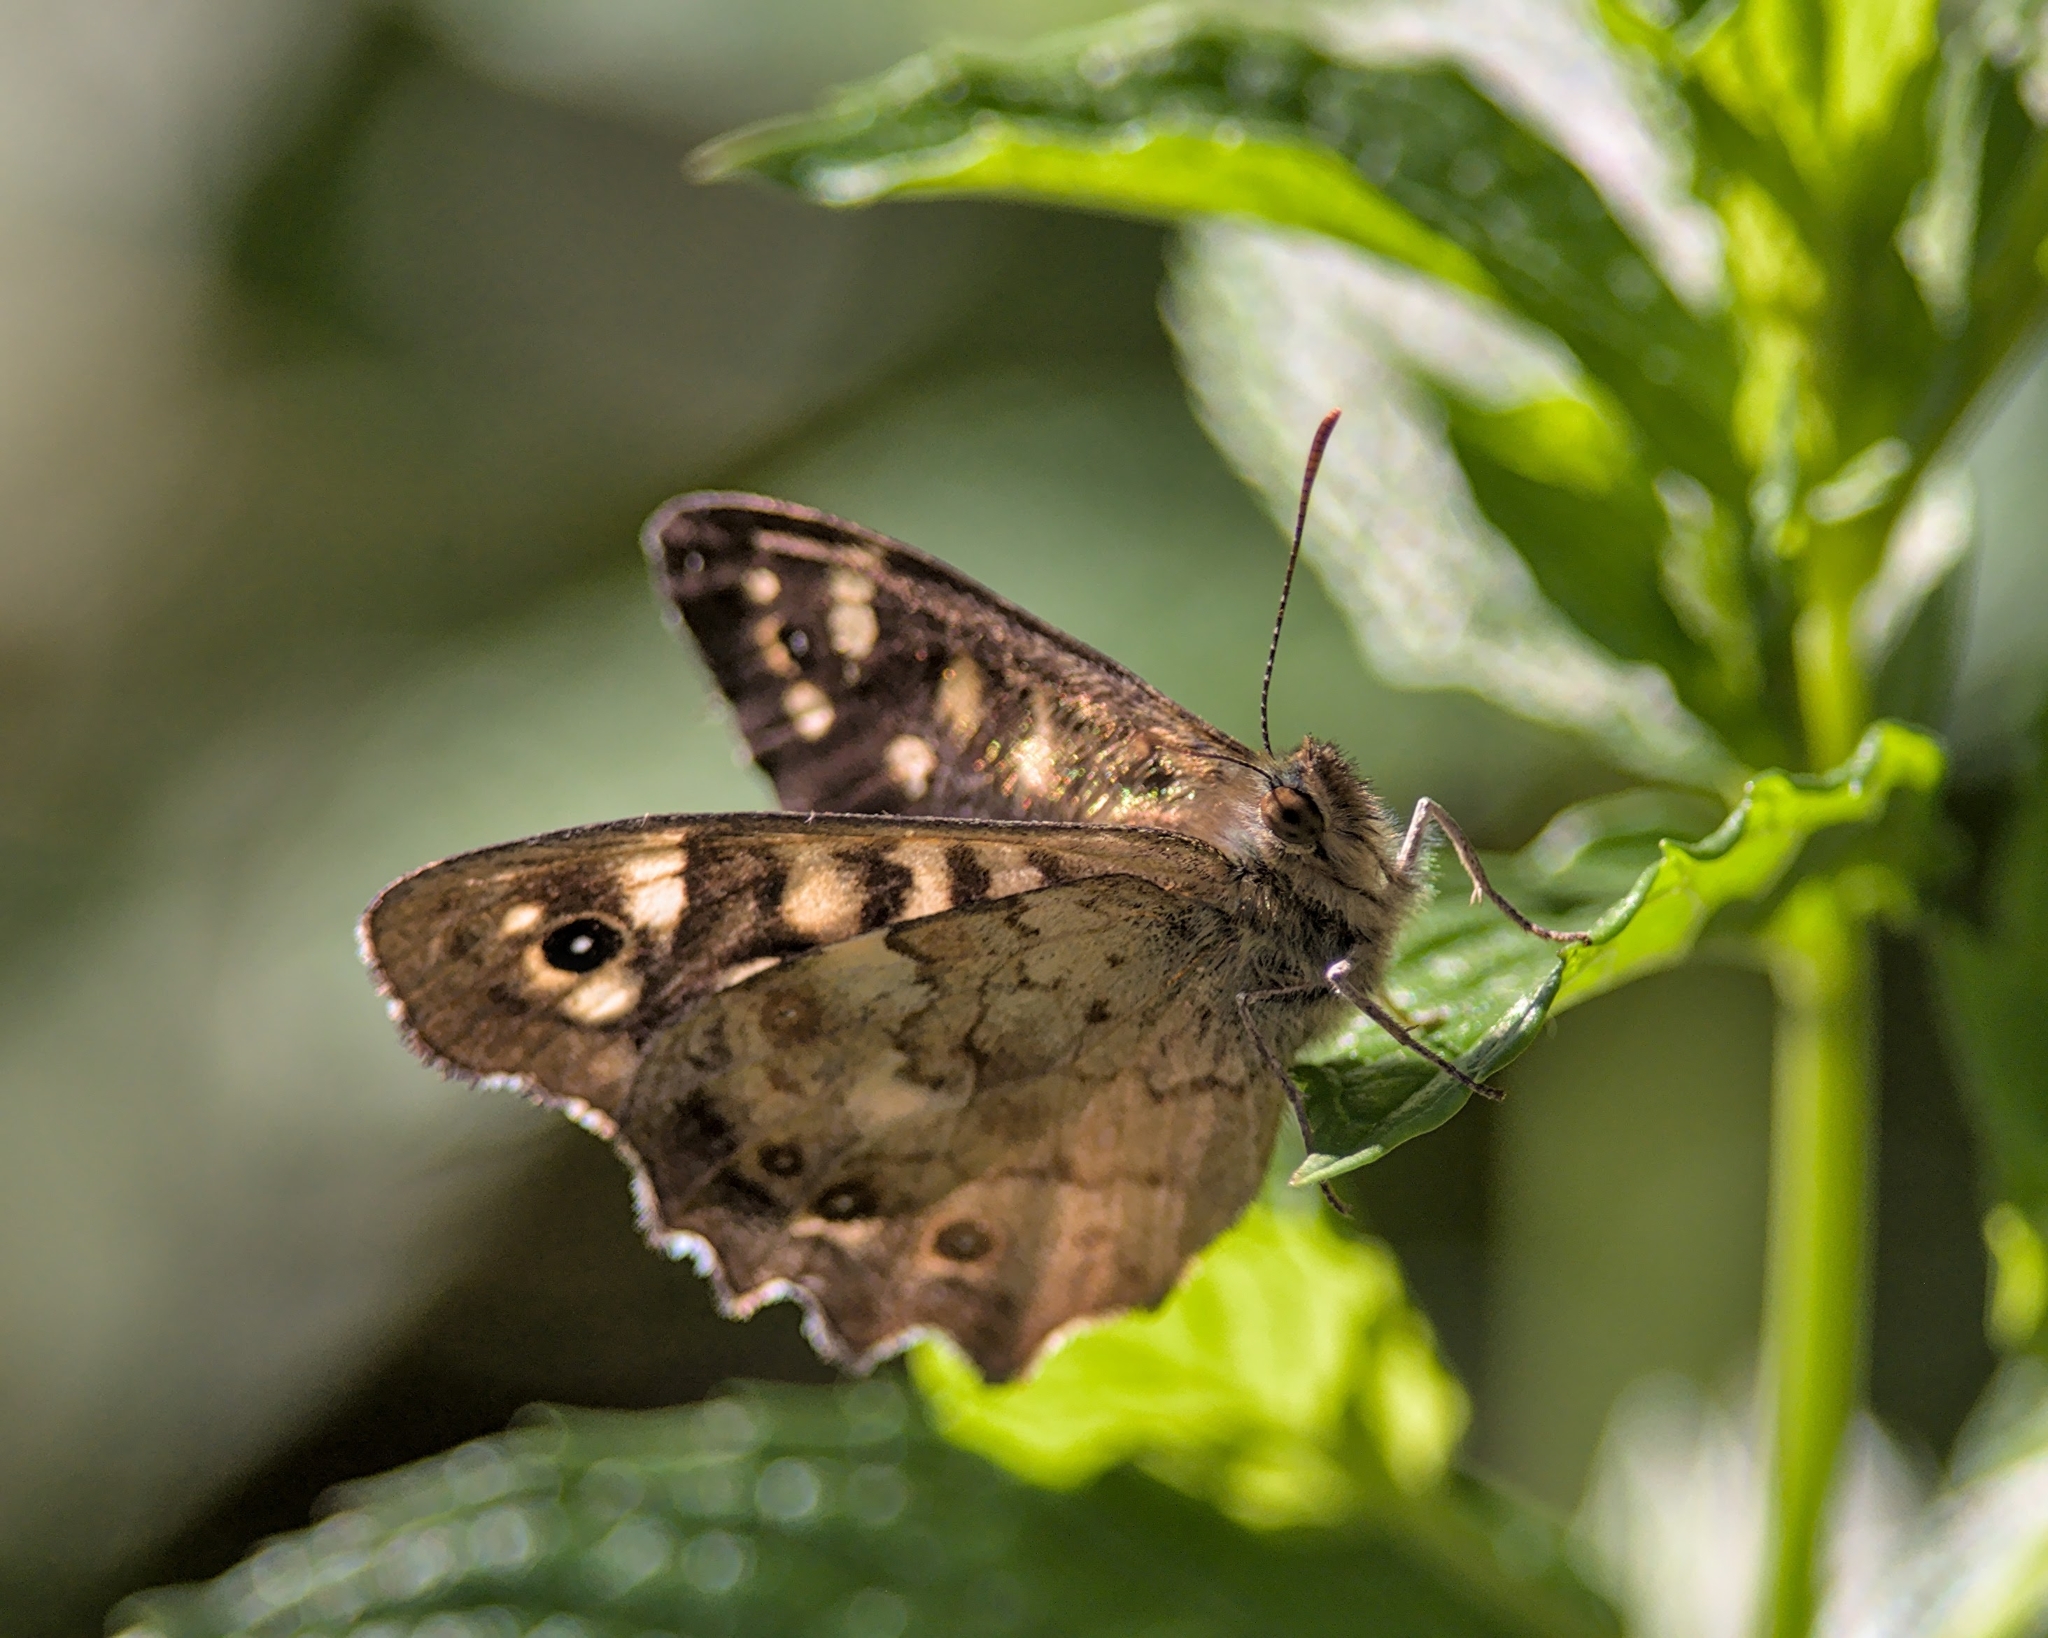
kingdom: Animalia
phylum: Arthropoda
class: Insecta
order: Lepidoptera
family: Nymphalidae
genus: Pararge
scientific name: Pararge aegeria
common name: Speckled wood
